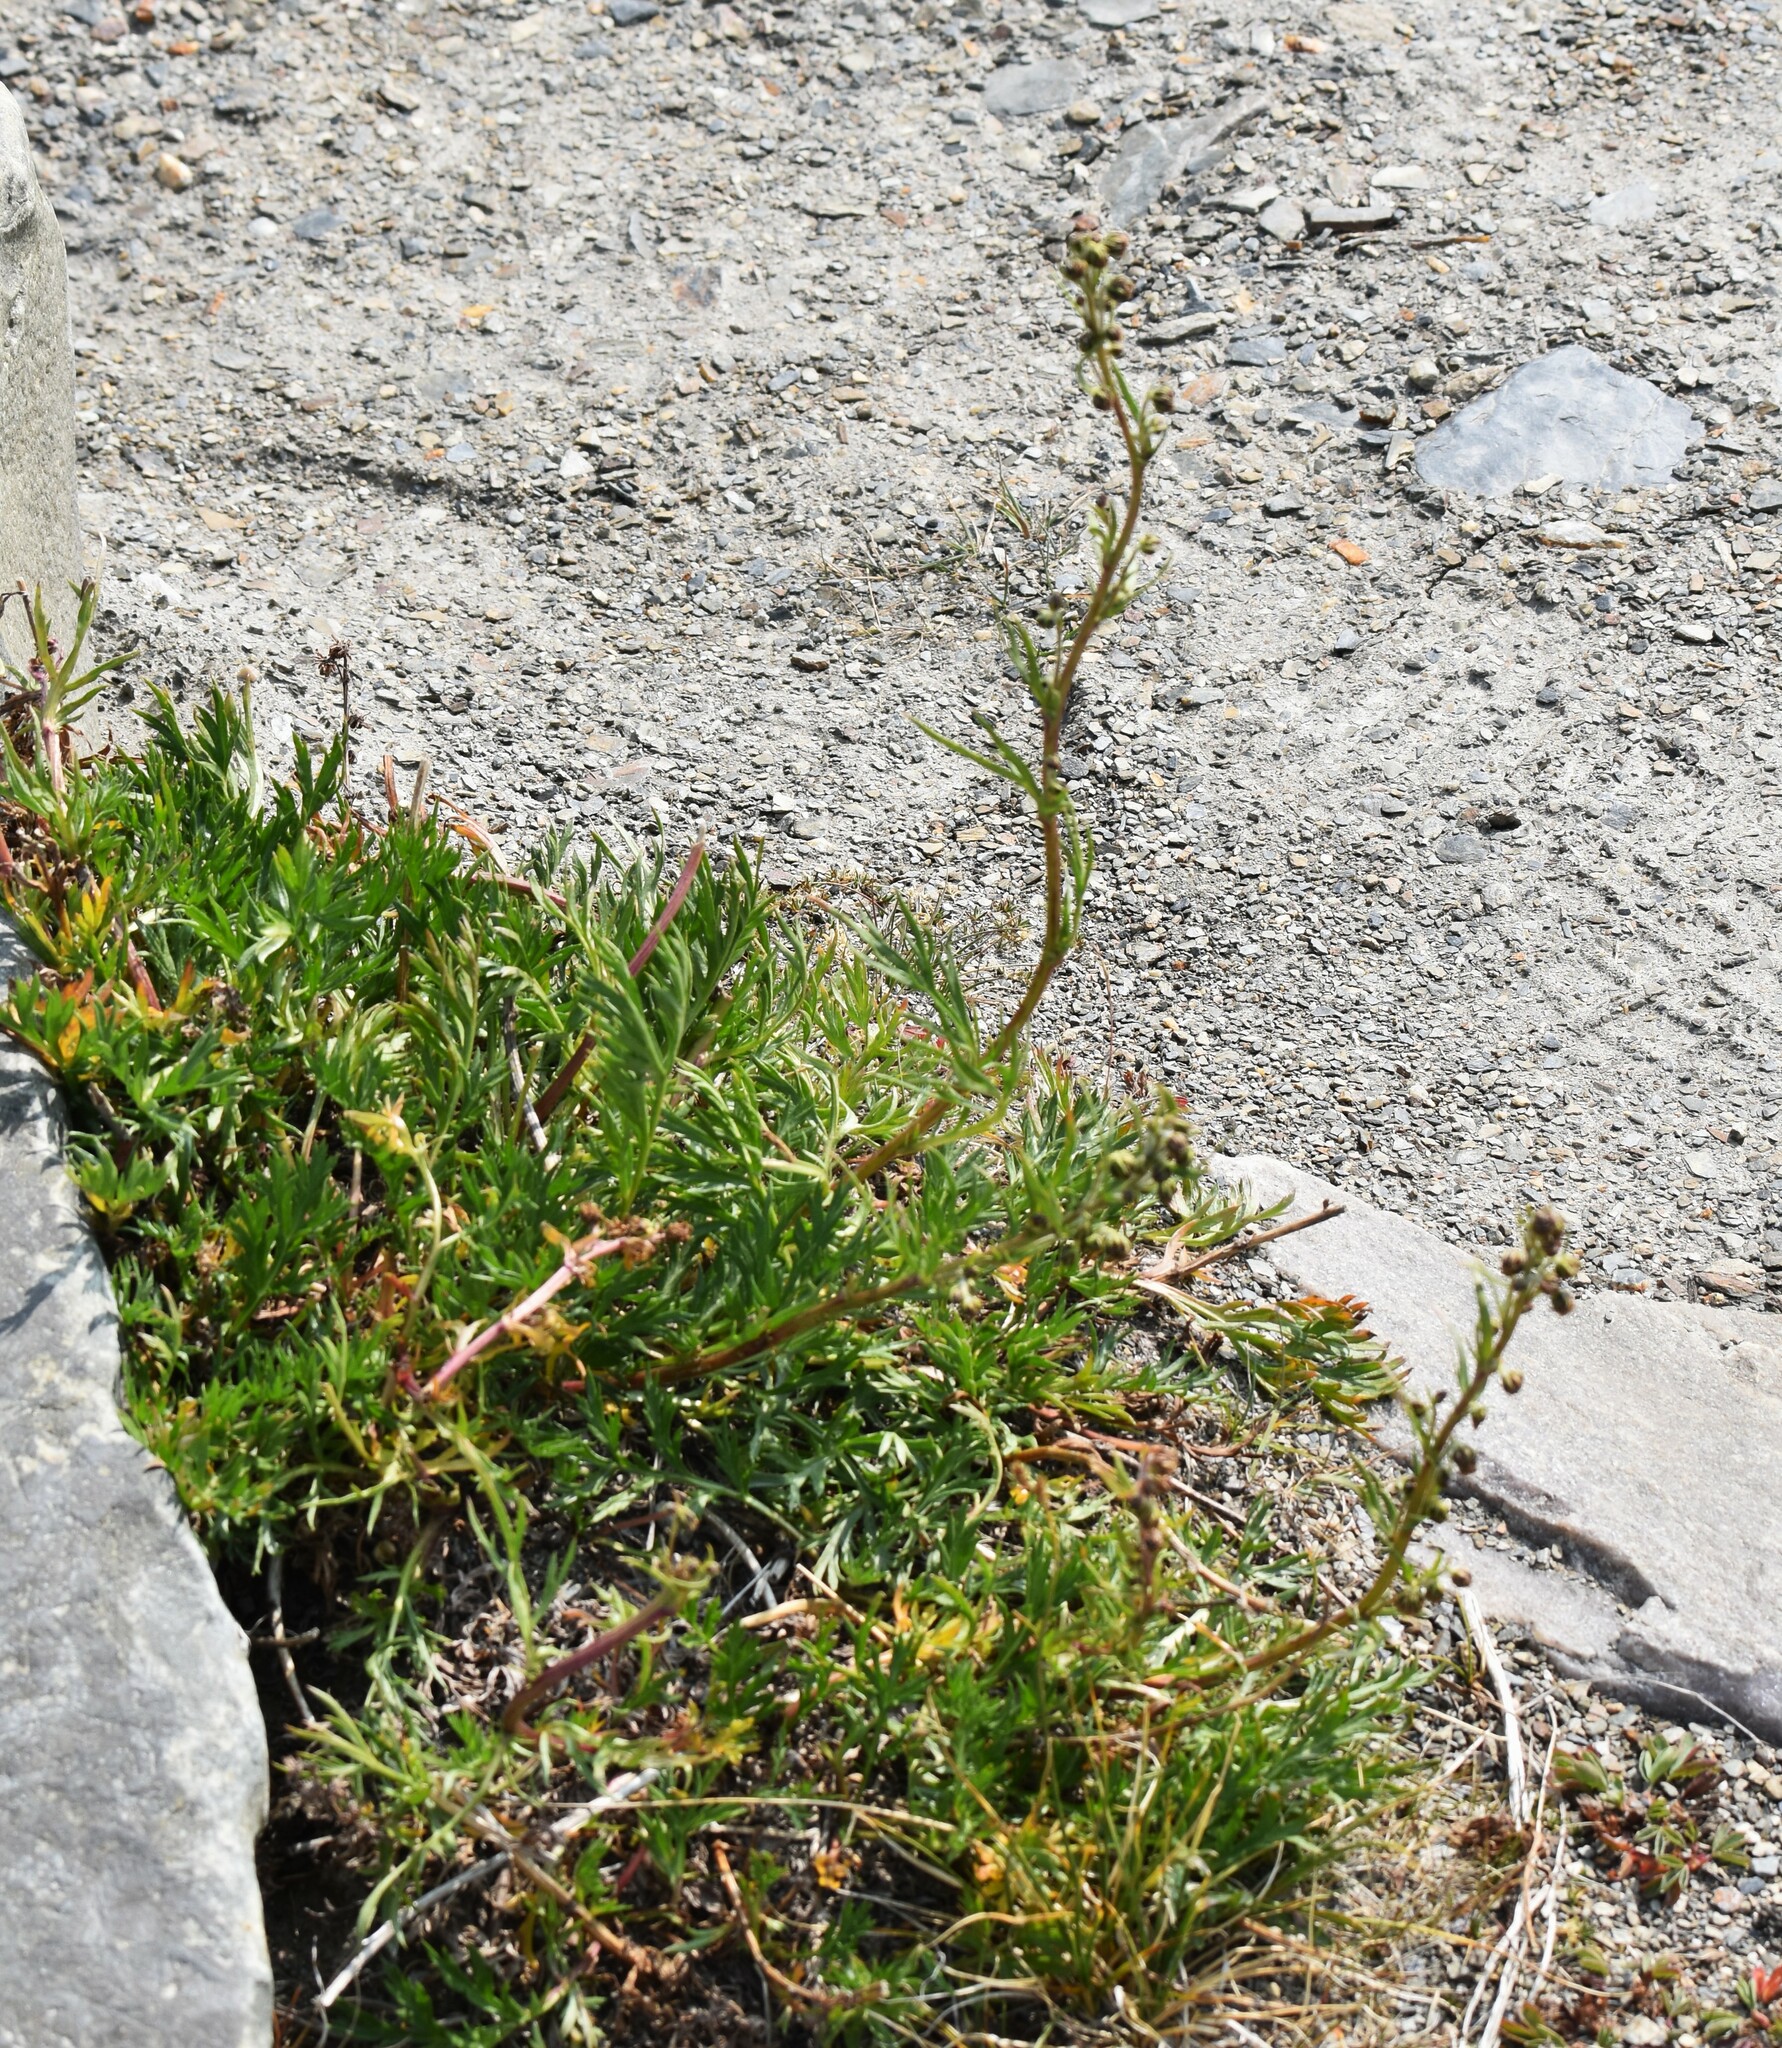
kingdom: Plantae
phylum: Tracheophyta
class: Magnoliopsida
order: Asterales
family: Asteraceae
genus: Artemisia
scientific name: Artemisia norvegica
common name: Norwegian mugwort
